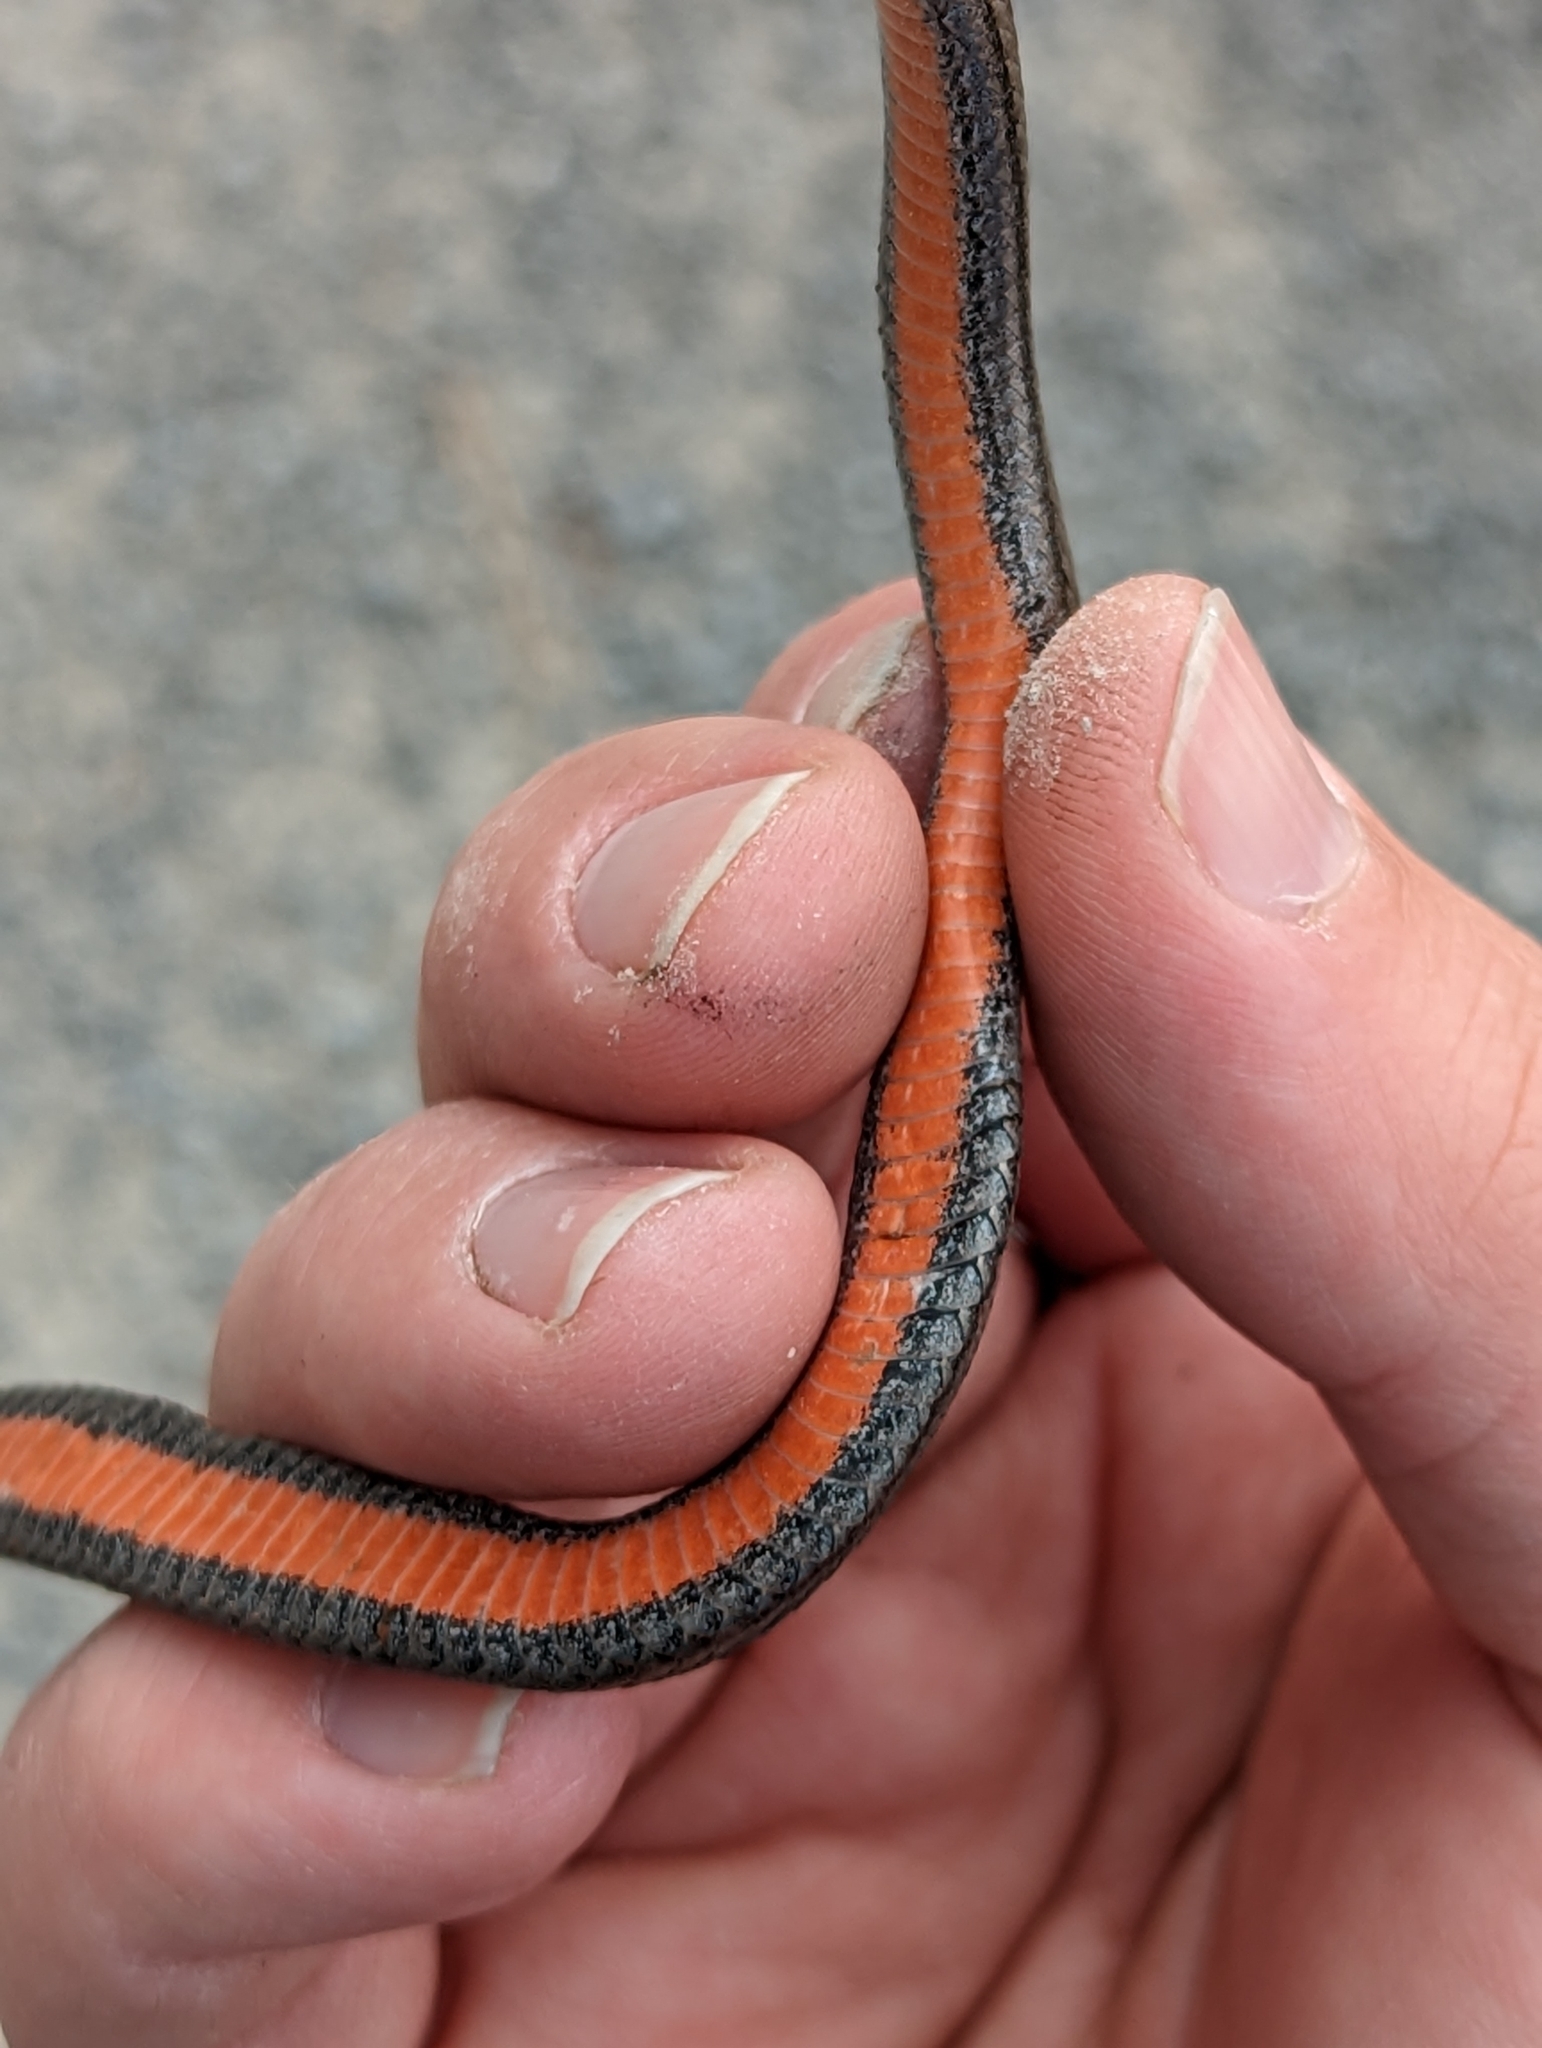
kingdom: Animalia
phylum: Chordata
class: Squamata
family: Colubridae
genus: Storeria
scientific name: Storeria occipitomaculata
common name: Redbelly snake
